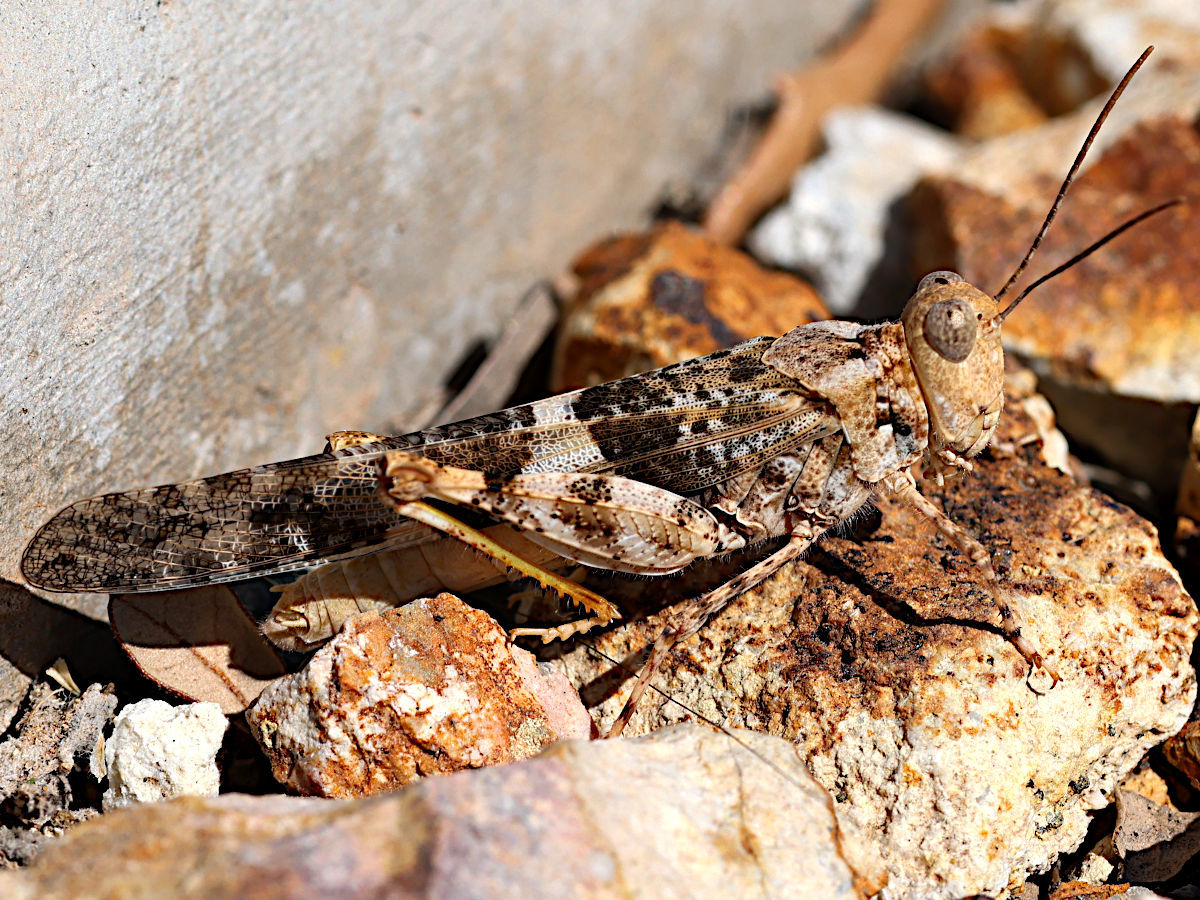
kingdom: Animalia
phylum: Arthropoda
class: Insecta
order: Orthoptera
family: Acrididae
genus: Trimerotropis
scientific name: Trimerotropis pallidipennis
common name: Pallid-winged grasshopper
